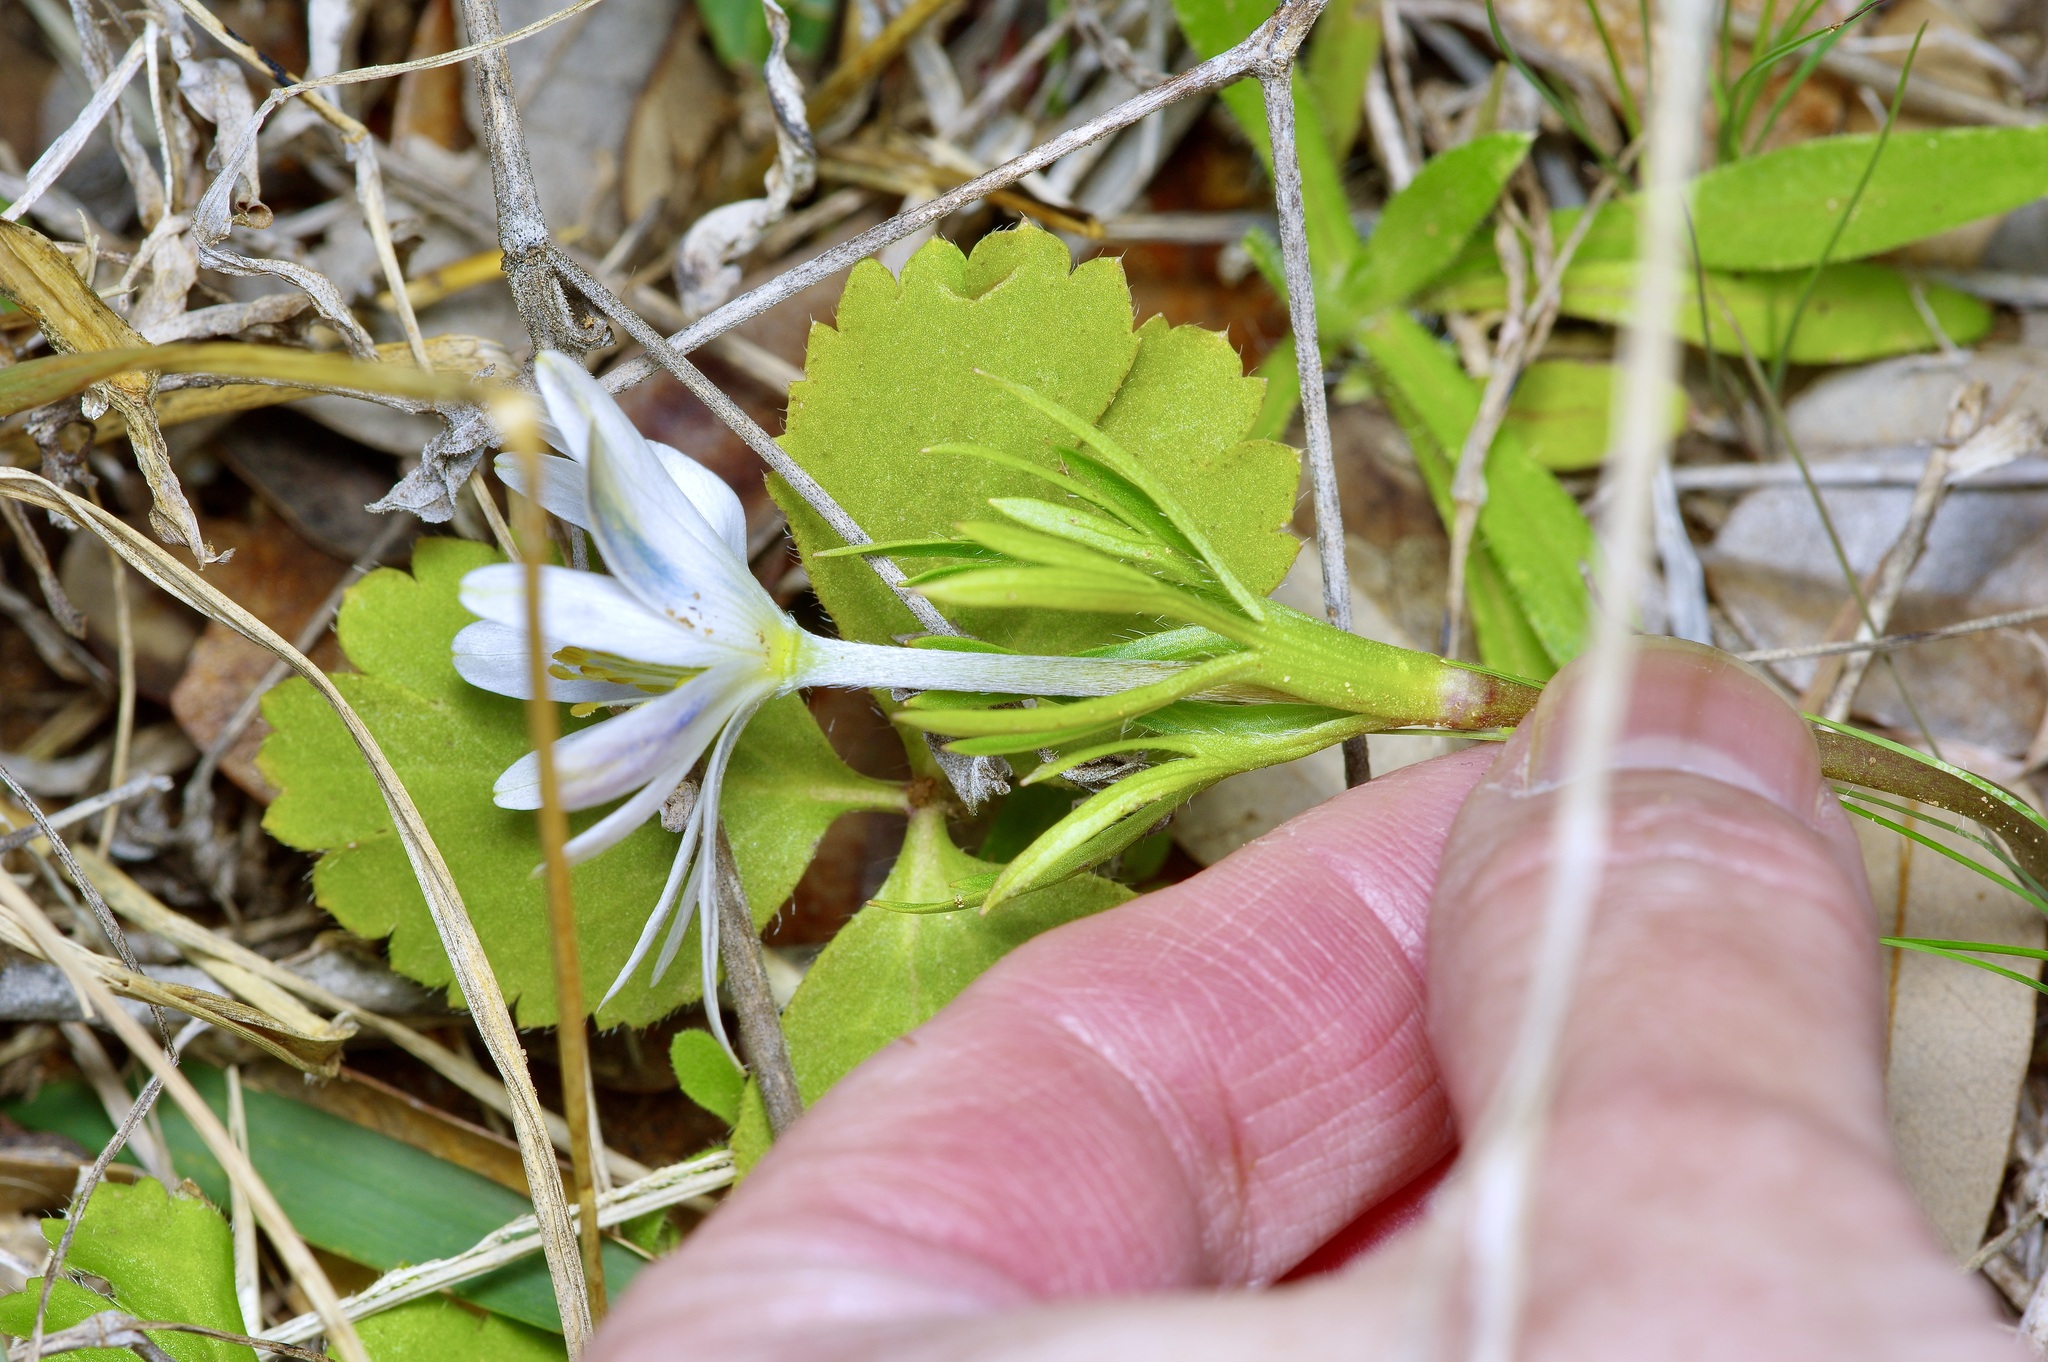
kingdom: Plantae
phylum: Tracheophyta
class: Magnoliopsida
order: Ranunculales
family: Ranunculaceae
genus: Anemone
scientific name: Anemone berlandieri
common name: Ten-petal anemone
